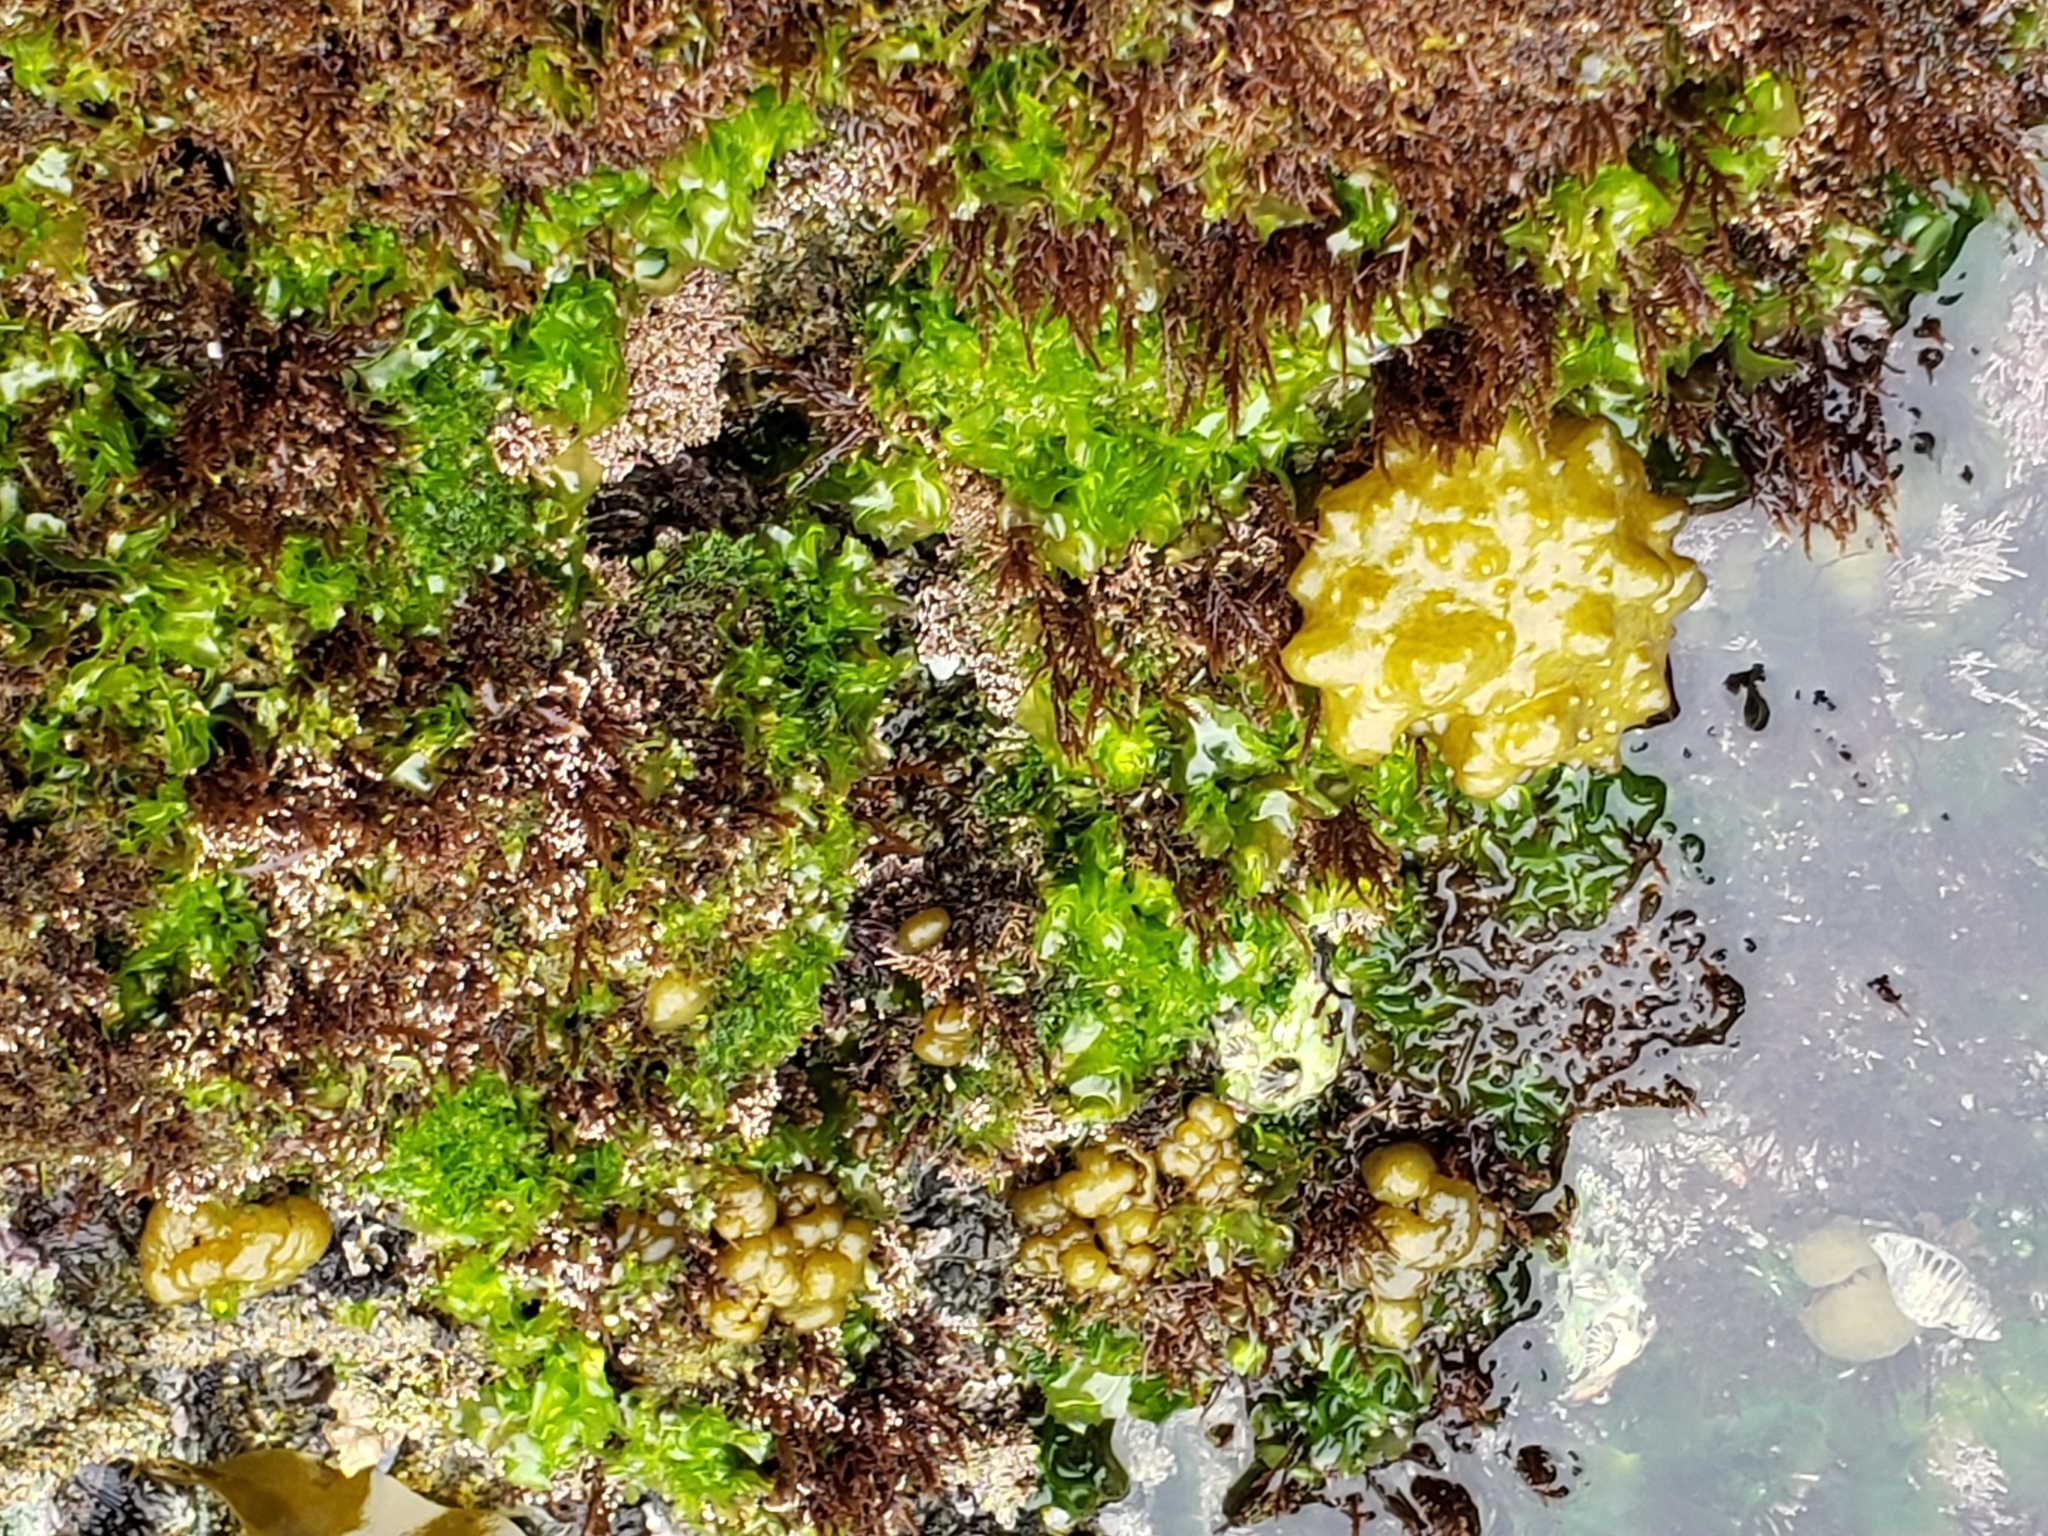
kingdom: Chromista
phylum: Ochrophyta
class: Phaeophyceae
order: Scytosiphonales
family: Scytosiphonaceae
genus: Colpomenia
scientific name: Colpomenia
